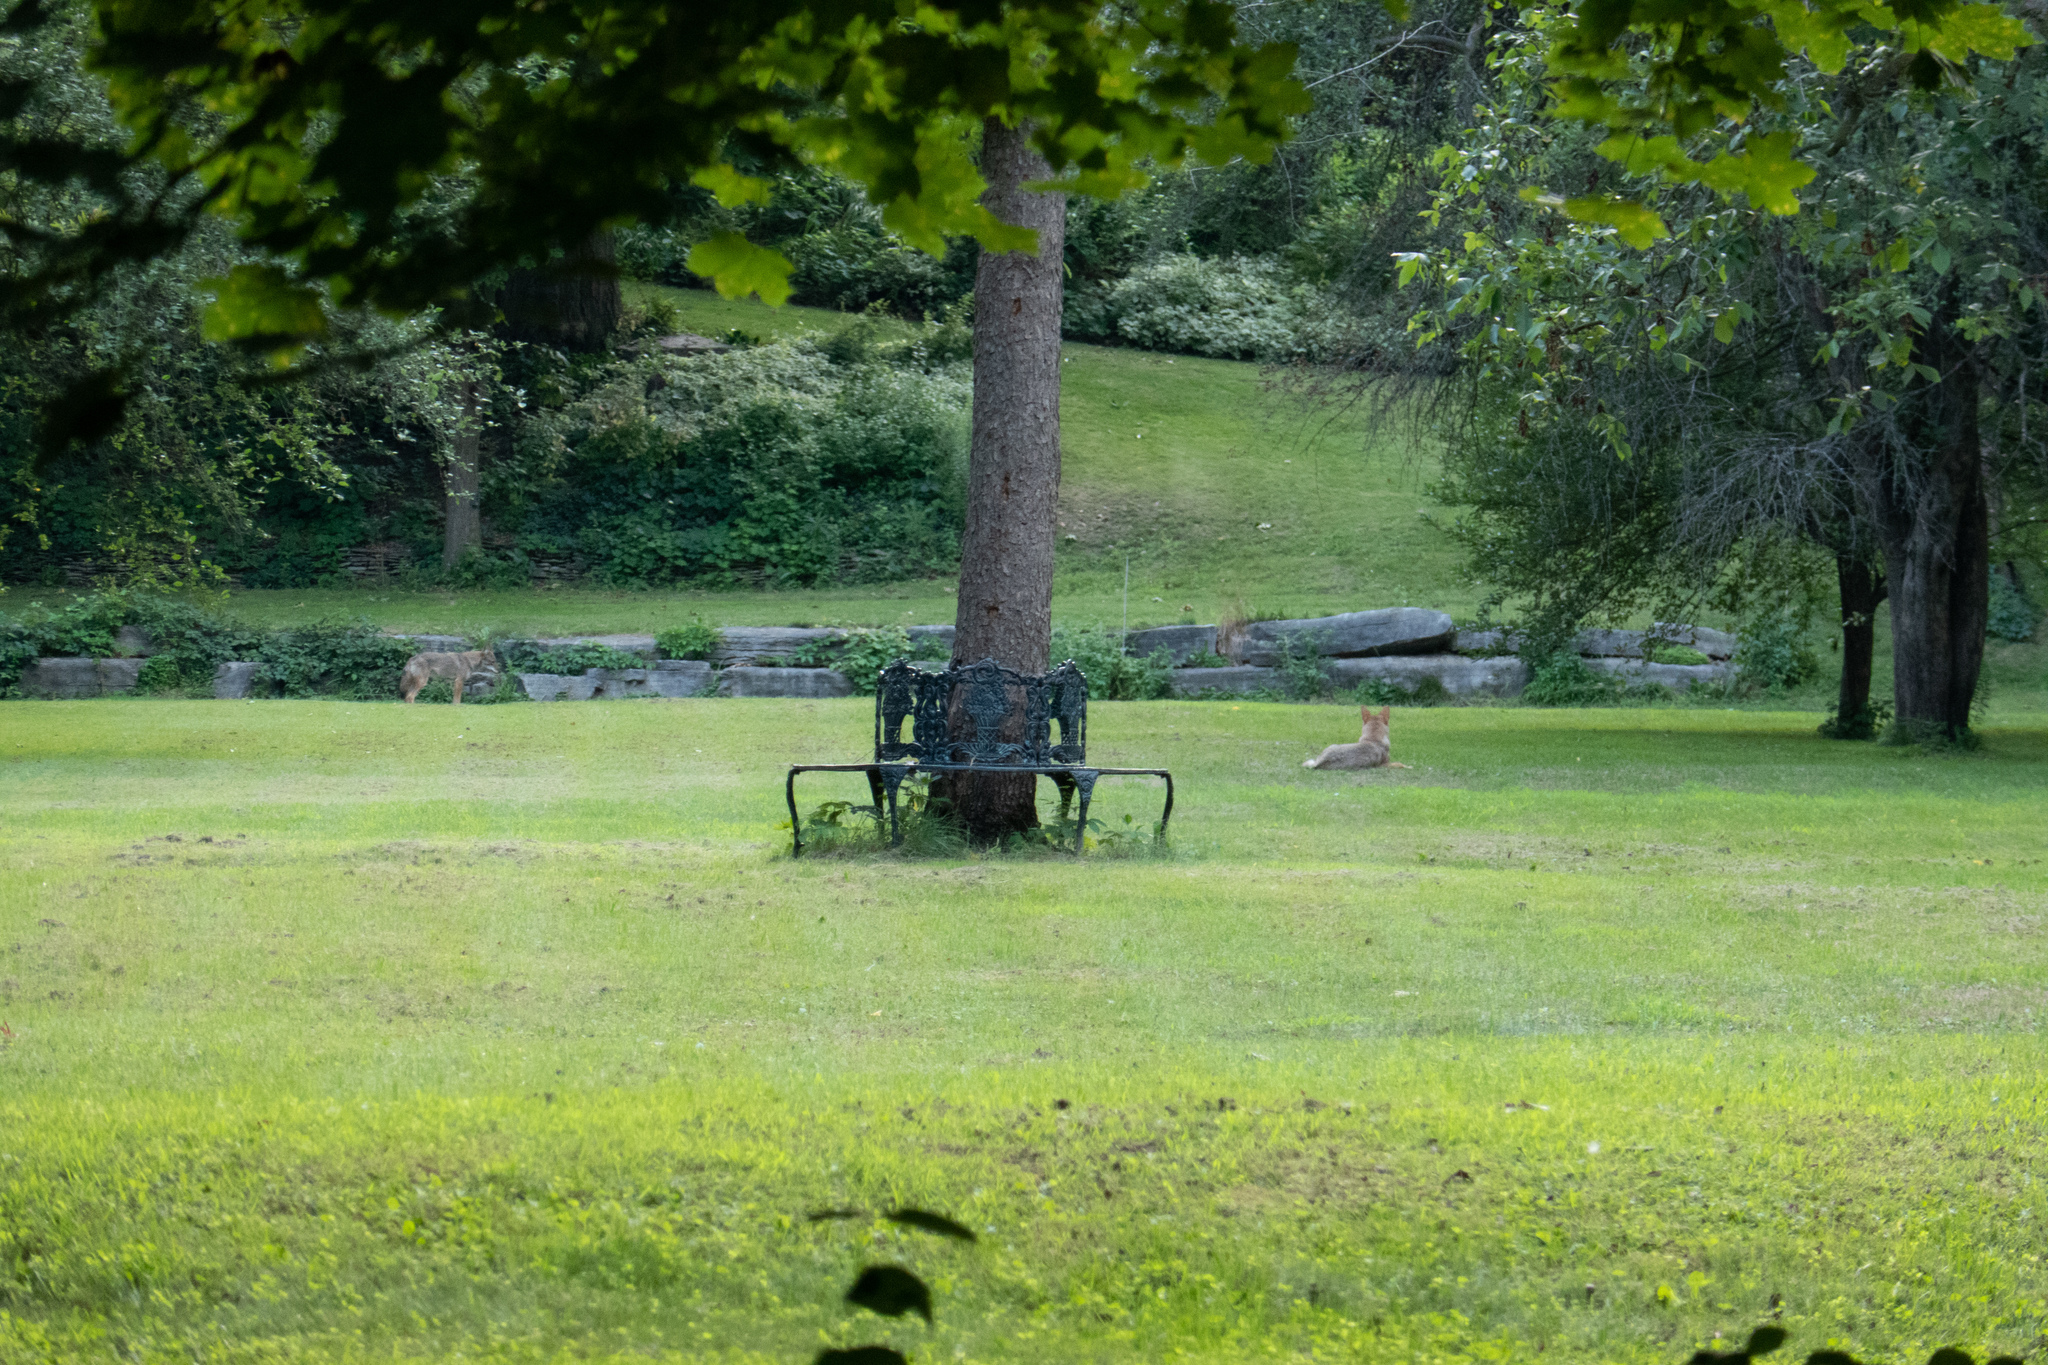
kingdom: Animalia
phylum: Chordata
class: Mammalia
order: Carnivora
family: Canidae
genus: Canis
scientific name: Canis latrans
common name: Coyote
